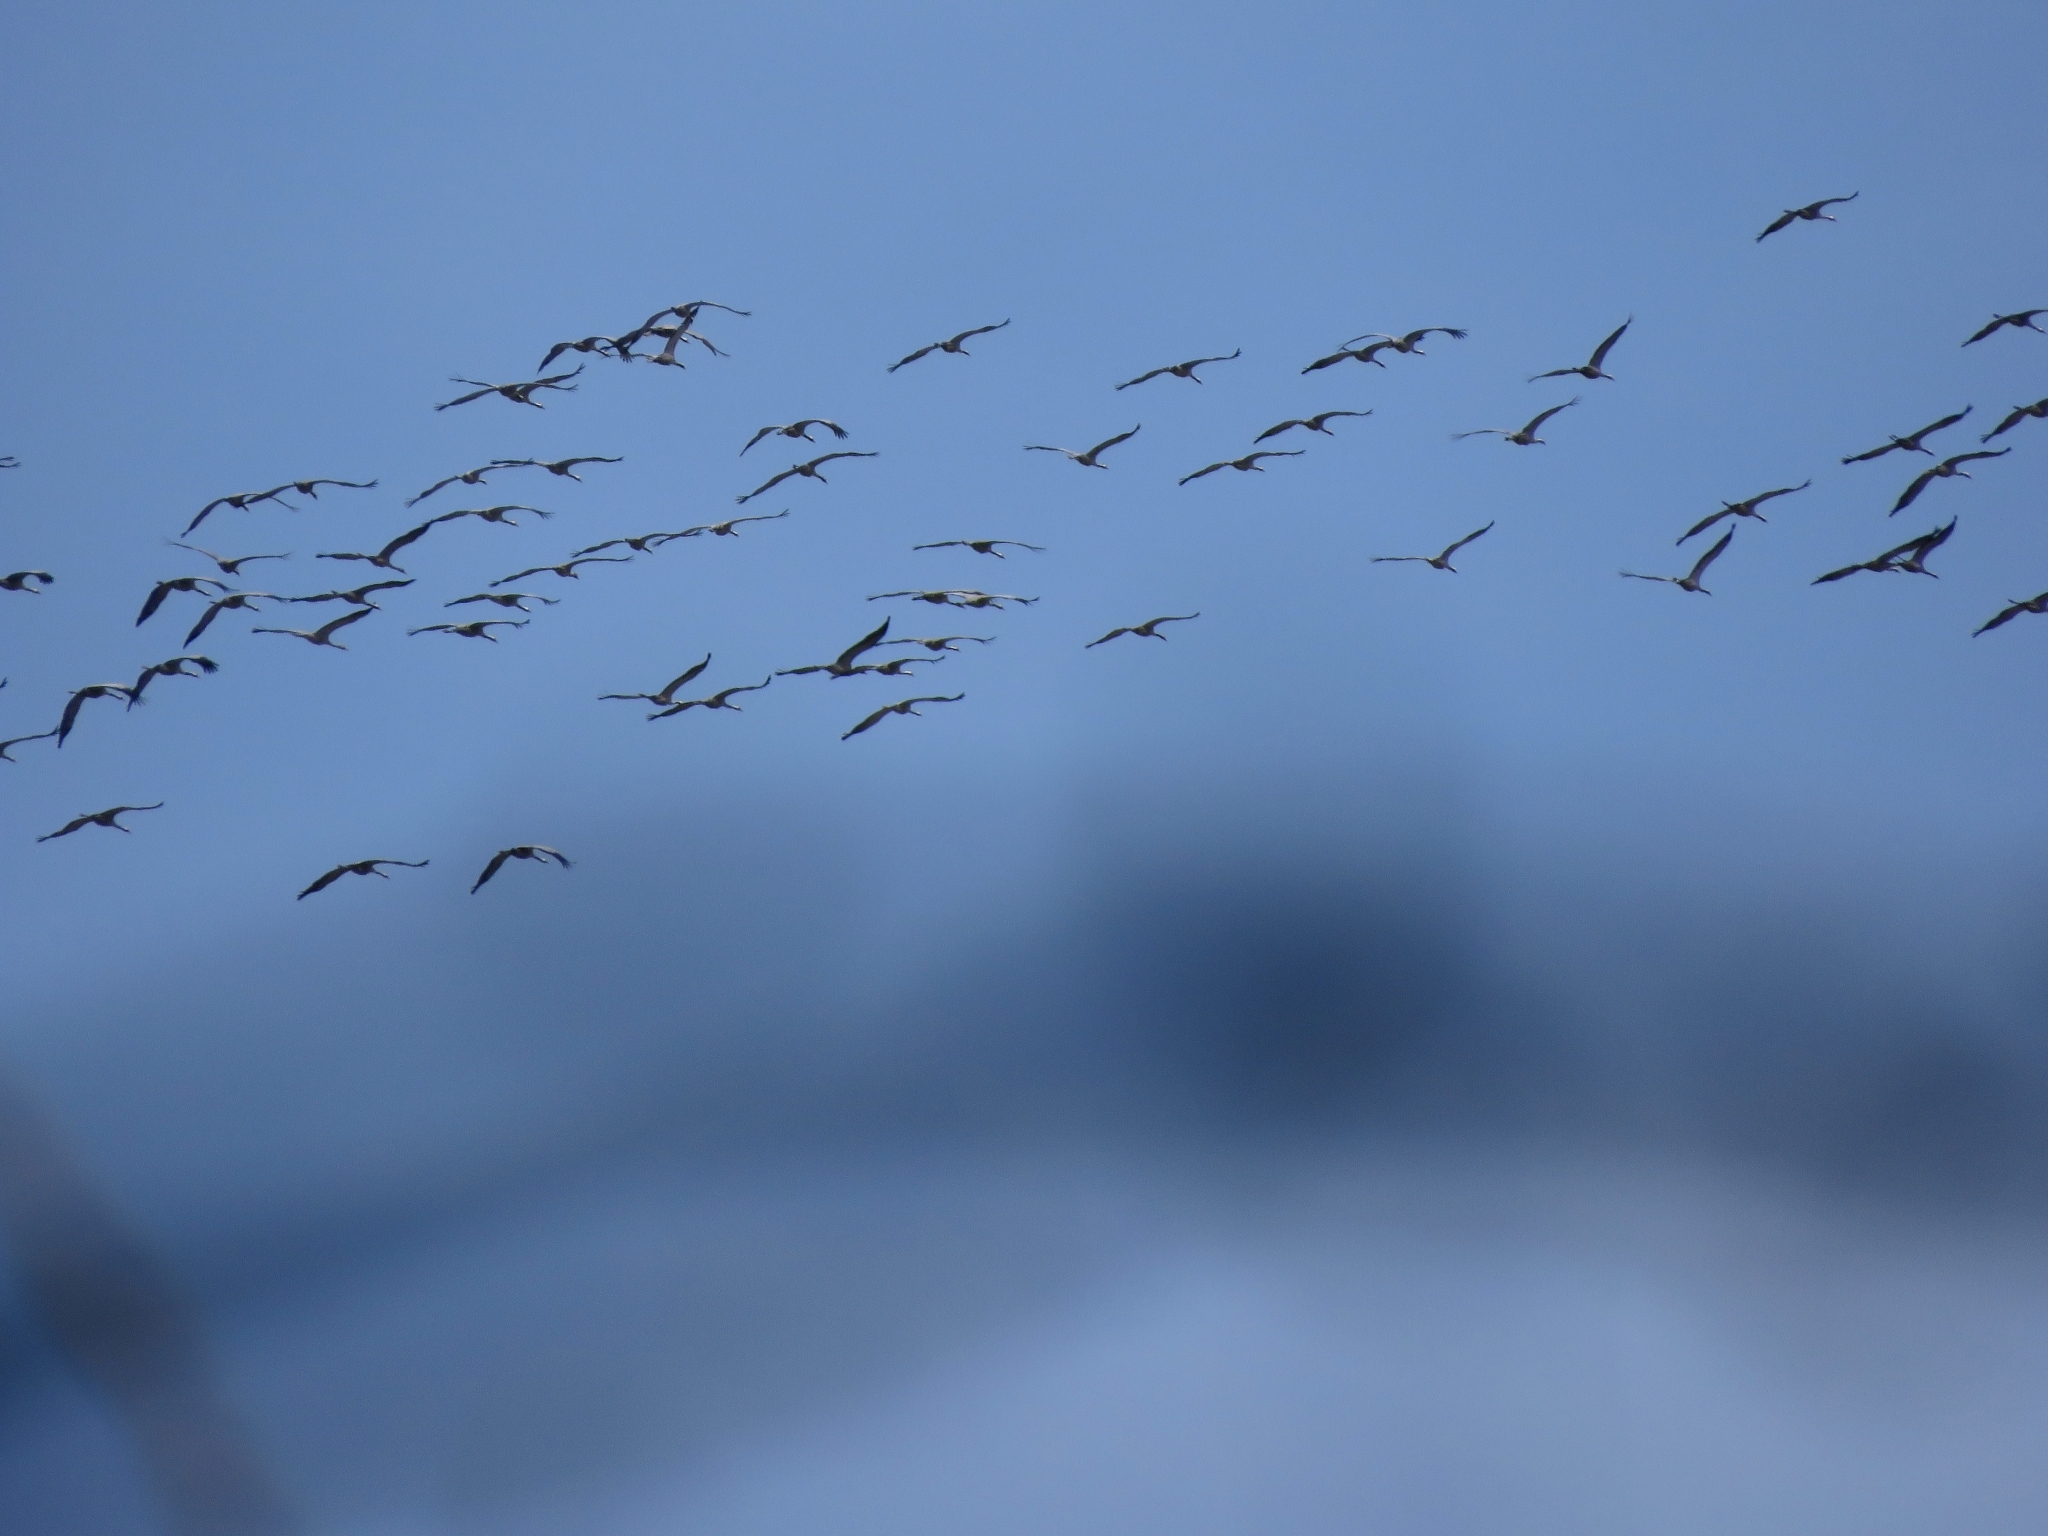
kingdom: Animalia
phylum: Chordata
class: Aves
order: Gruiformes
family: Gruidae
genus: Grus
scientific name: Grus grus
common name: Common crane
